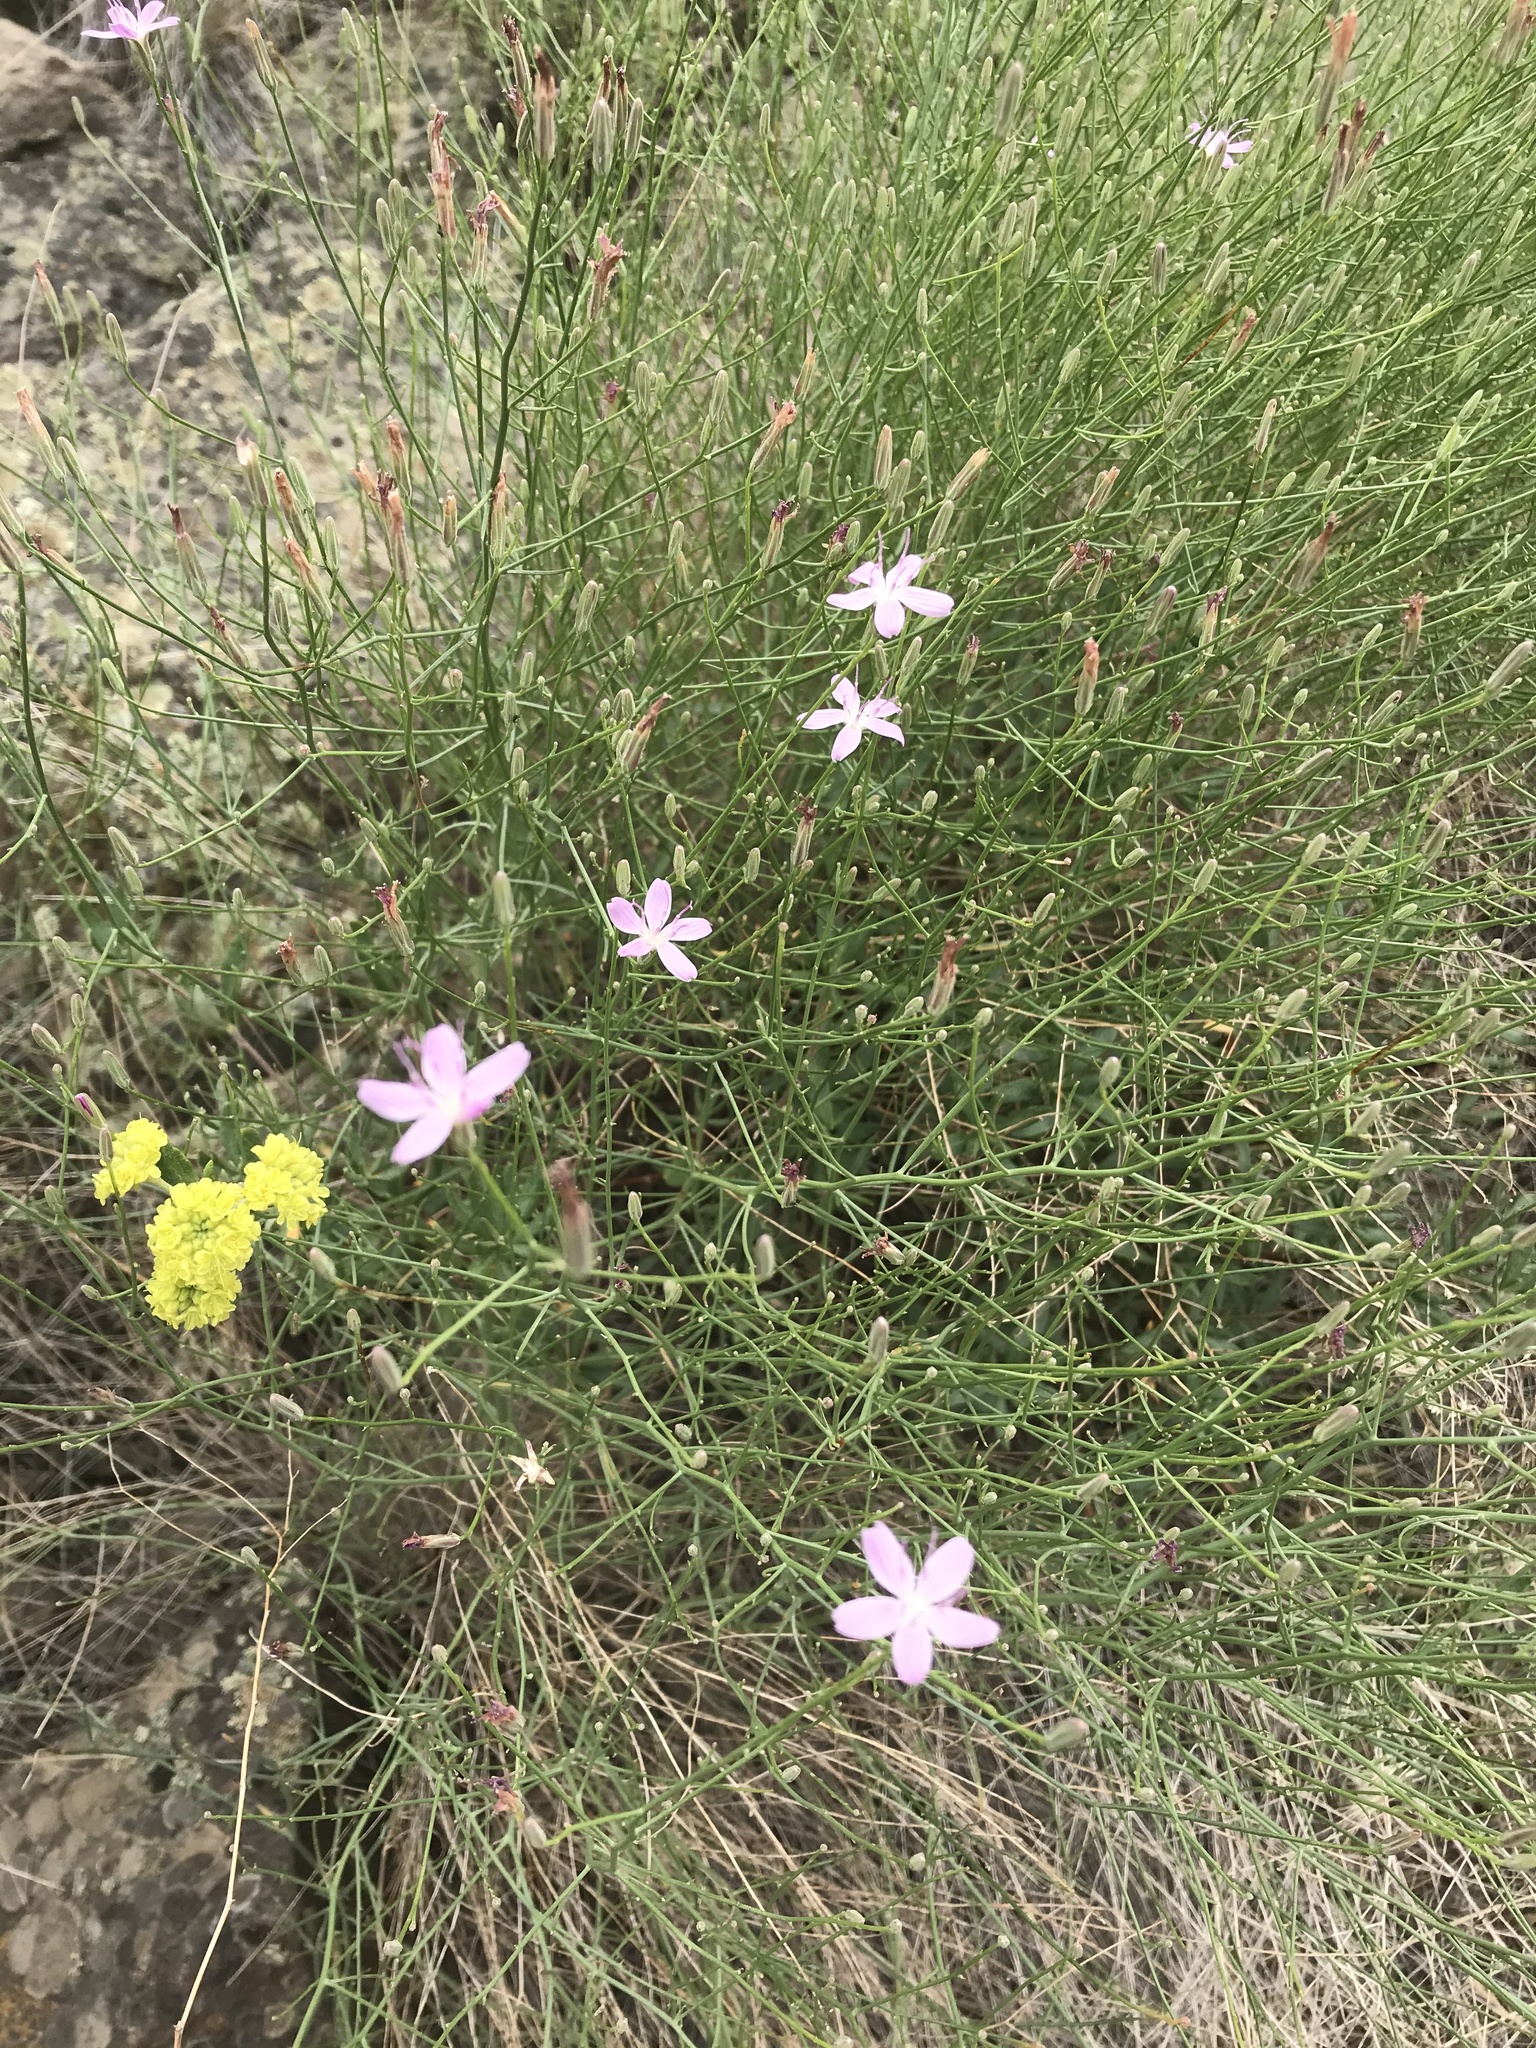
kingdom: Plantae
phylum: Tracheophyta
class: Magnoliopsida
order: Asterales
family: Asteraceae
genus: Lygodesmia
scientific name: Lygodesmia juncea
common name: Common skeletonweed
